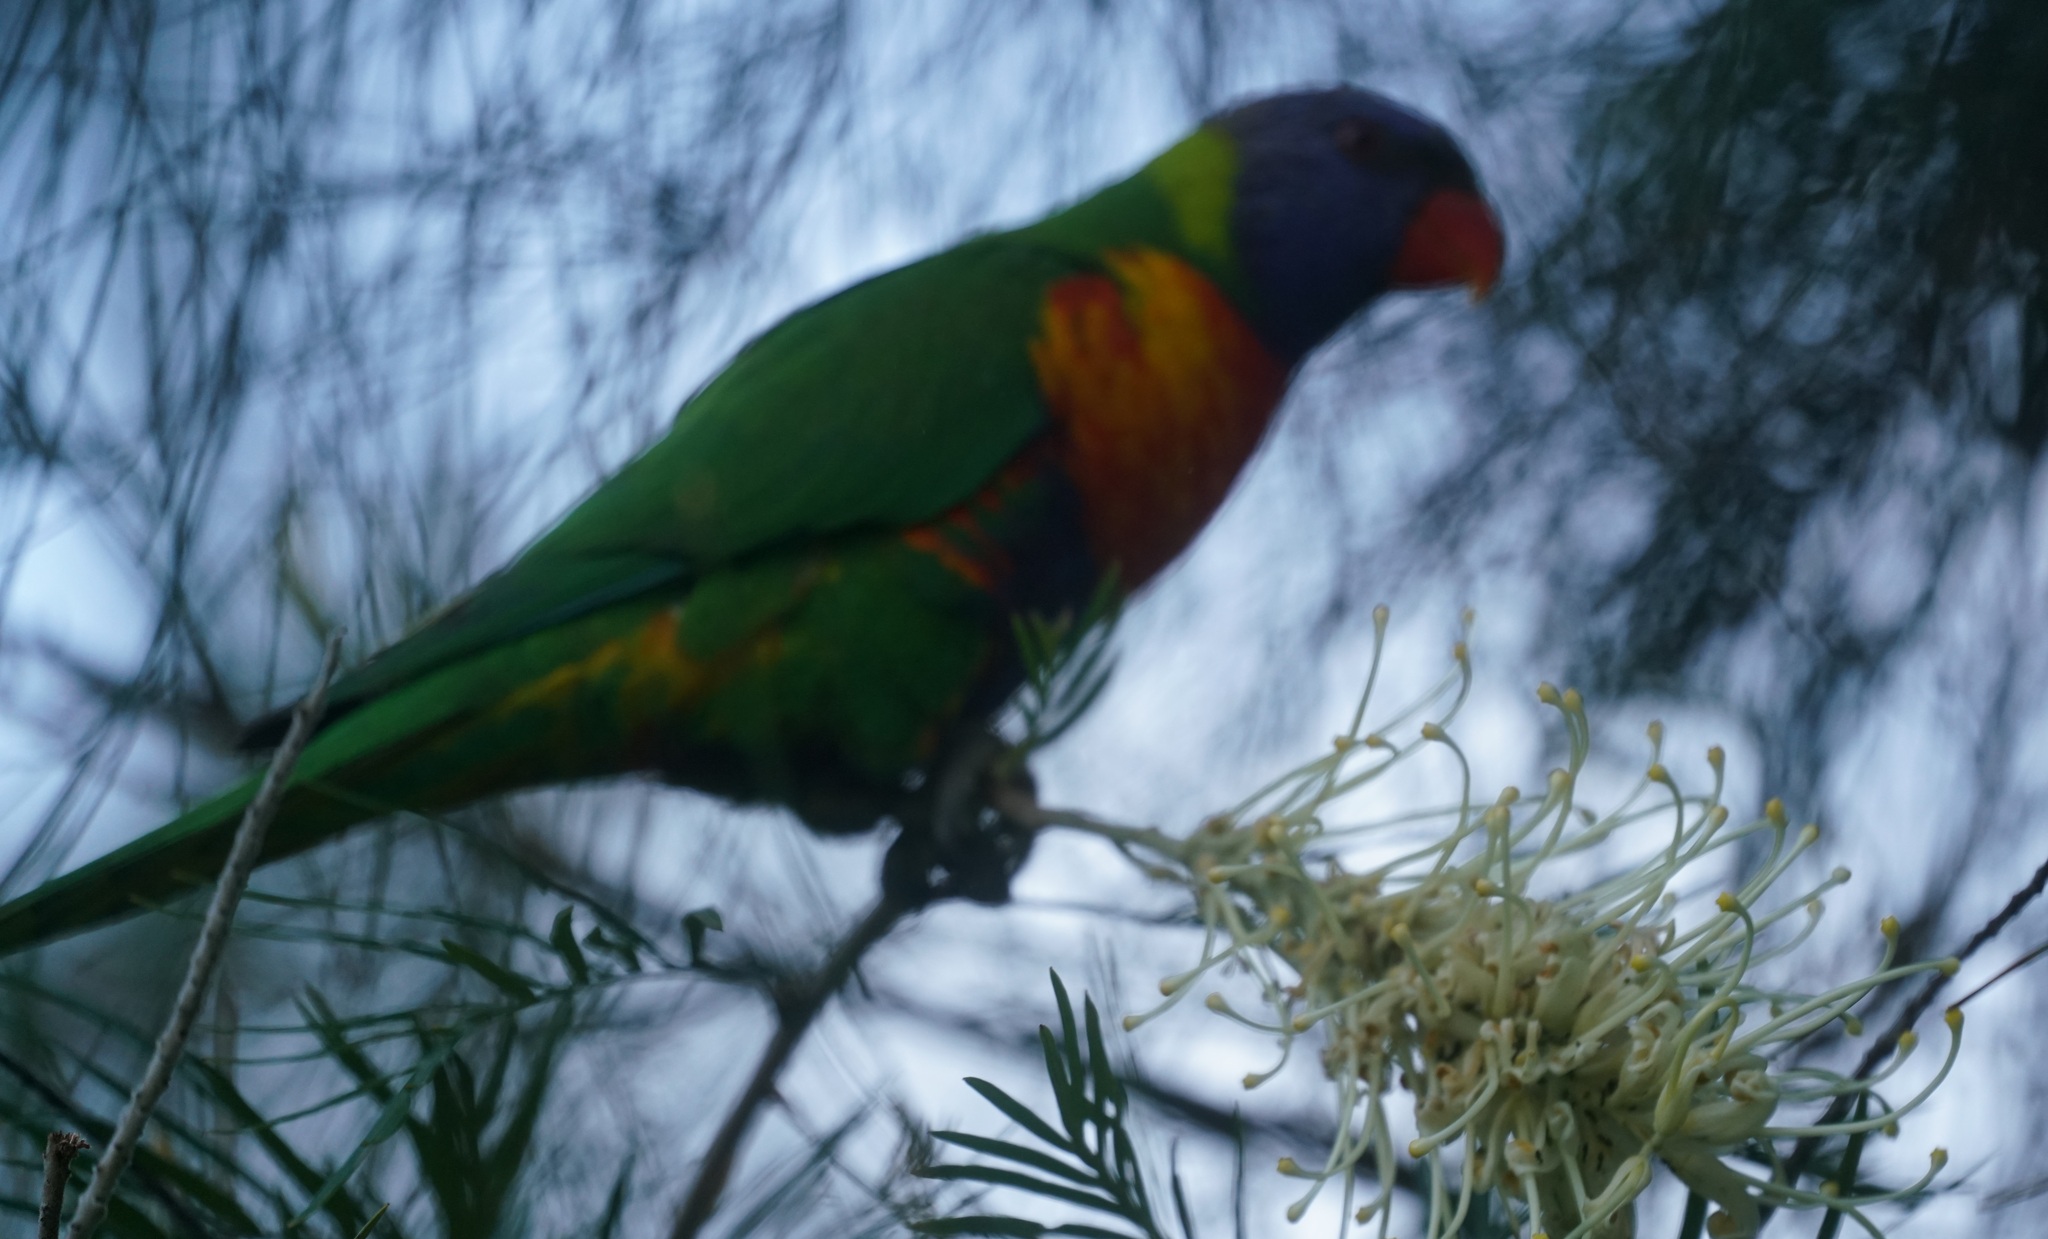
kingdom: Animalia
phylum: Chordata
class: Aves
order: Psittaciformes
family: Psittacidae
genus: Trichoglossus
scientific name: Trichoglossus haematodus
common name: Coconut lorikeet
